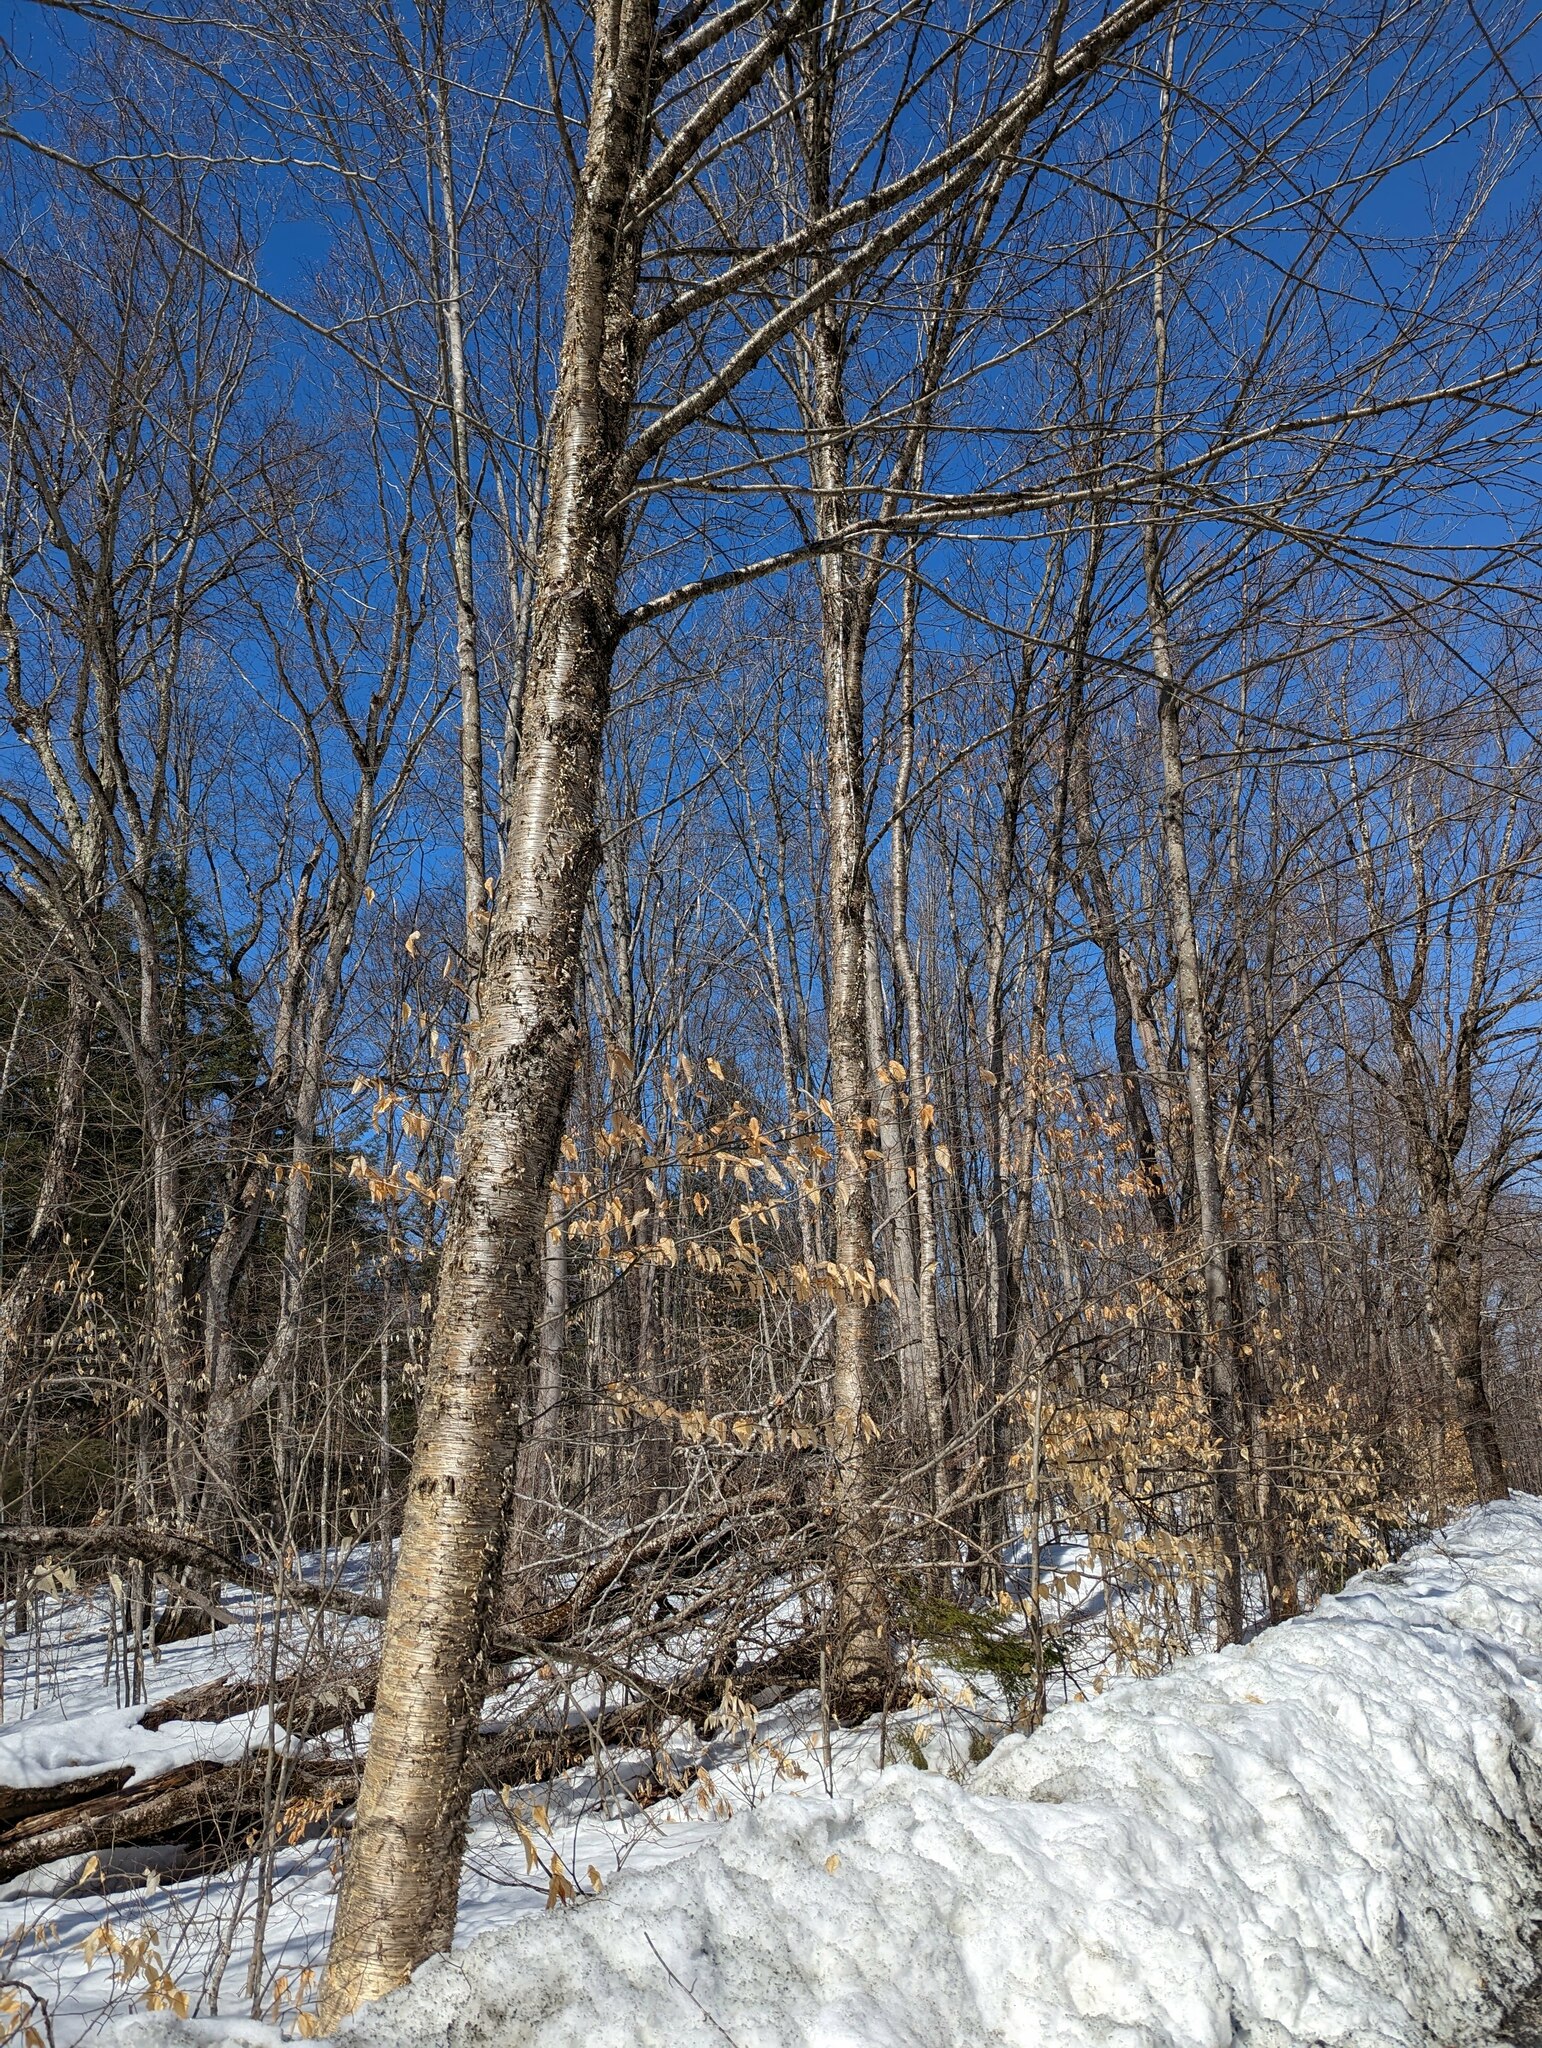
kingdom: Plantae
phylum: Tracheophyta
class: Magnoliopsida
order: Fagales
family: Betulaceae
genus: Betula
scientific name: Betula alleghaniensis
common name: Yellow birch
